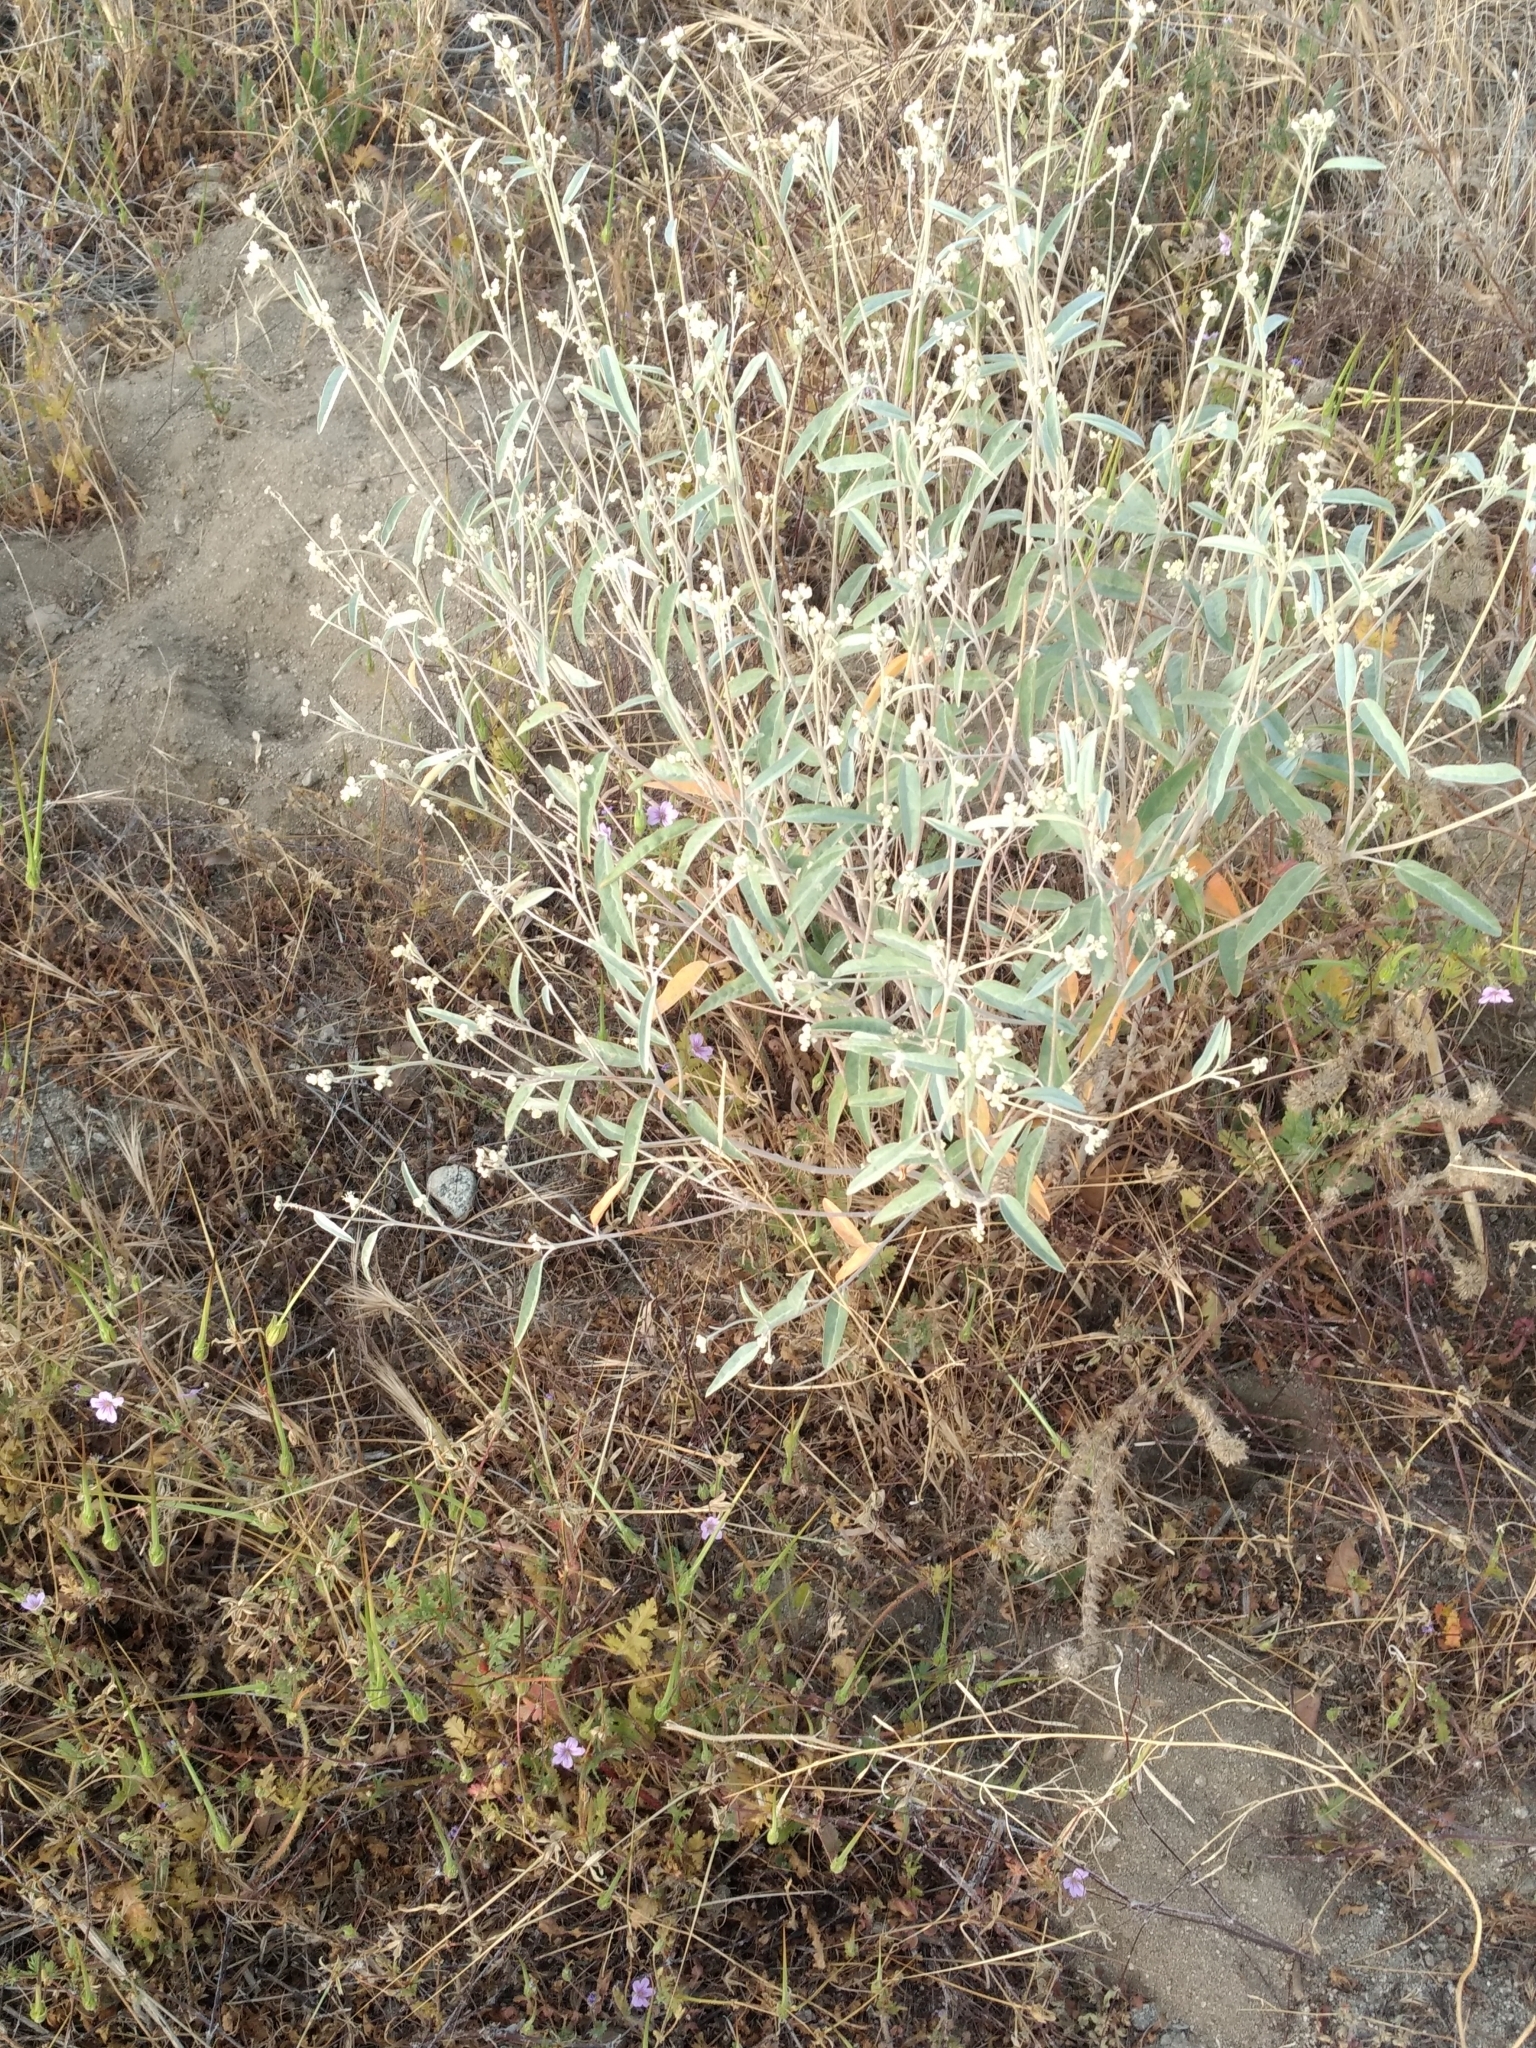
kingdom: Plantae
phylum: Tracheophyta
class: Magnoliopsida
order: Malpighiales
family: Euphorbiaceae
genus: Croton
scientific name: Croton californicus
